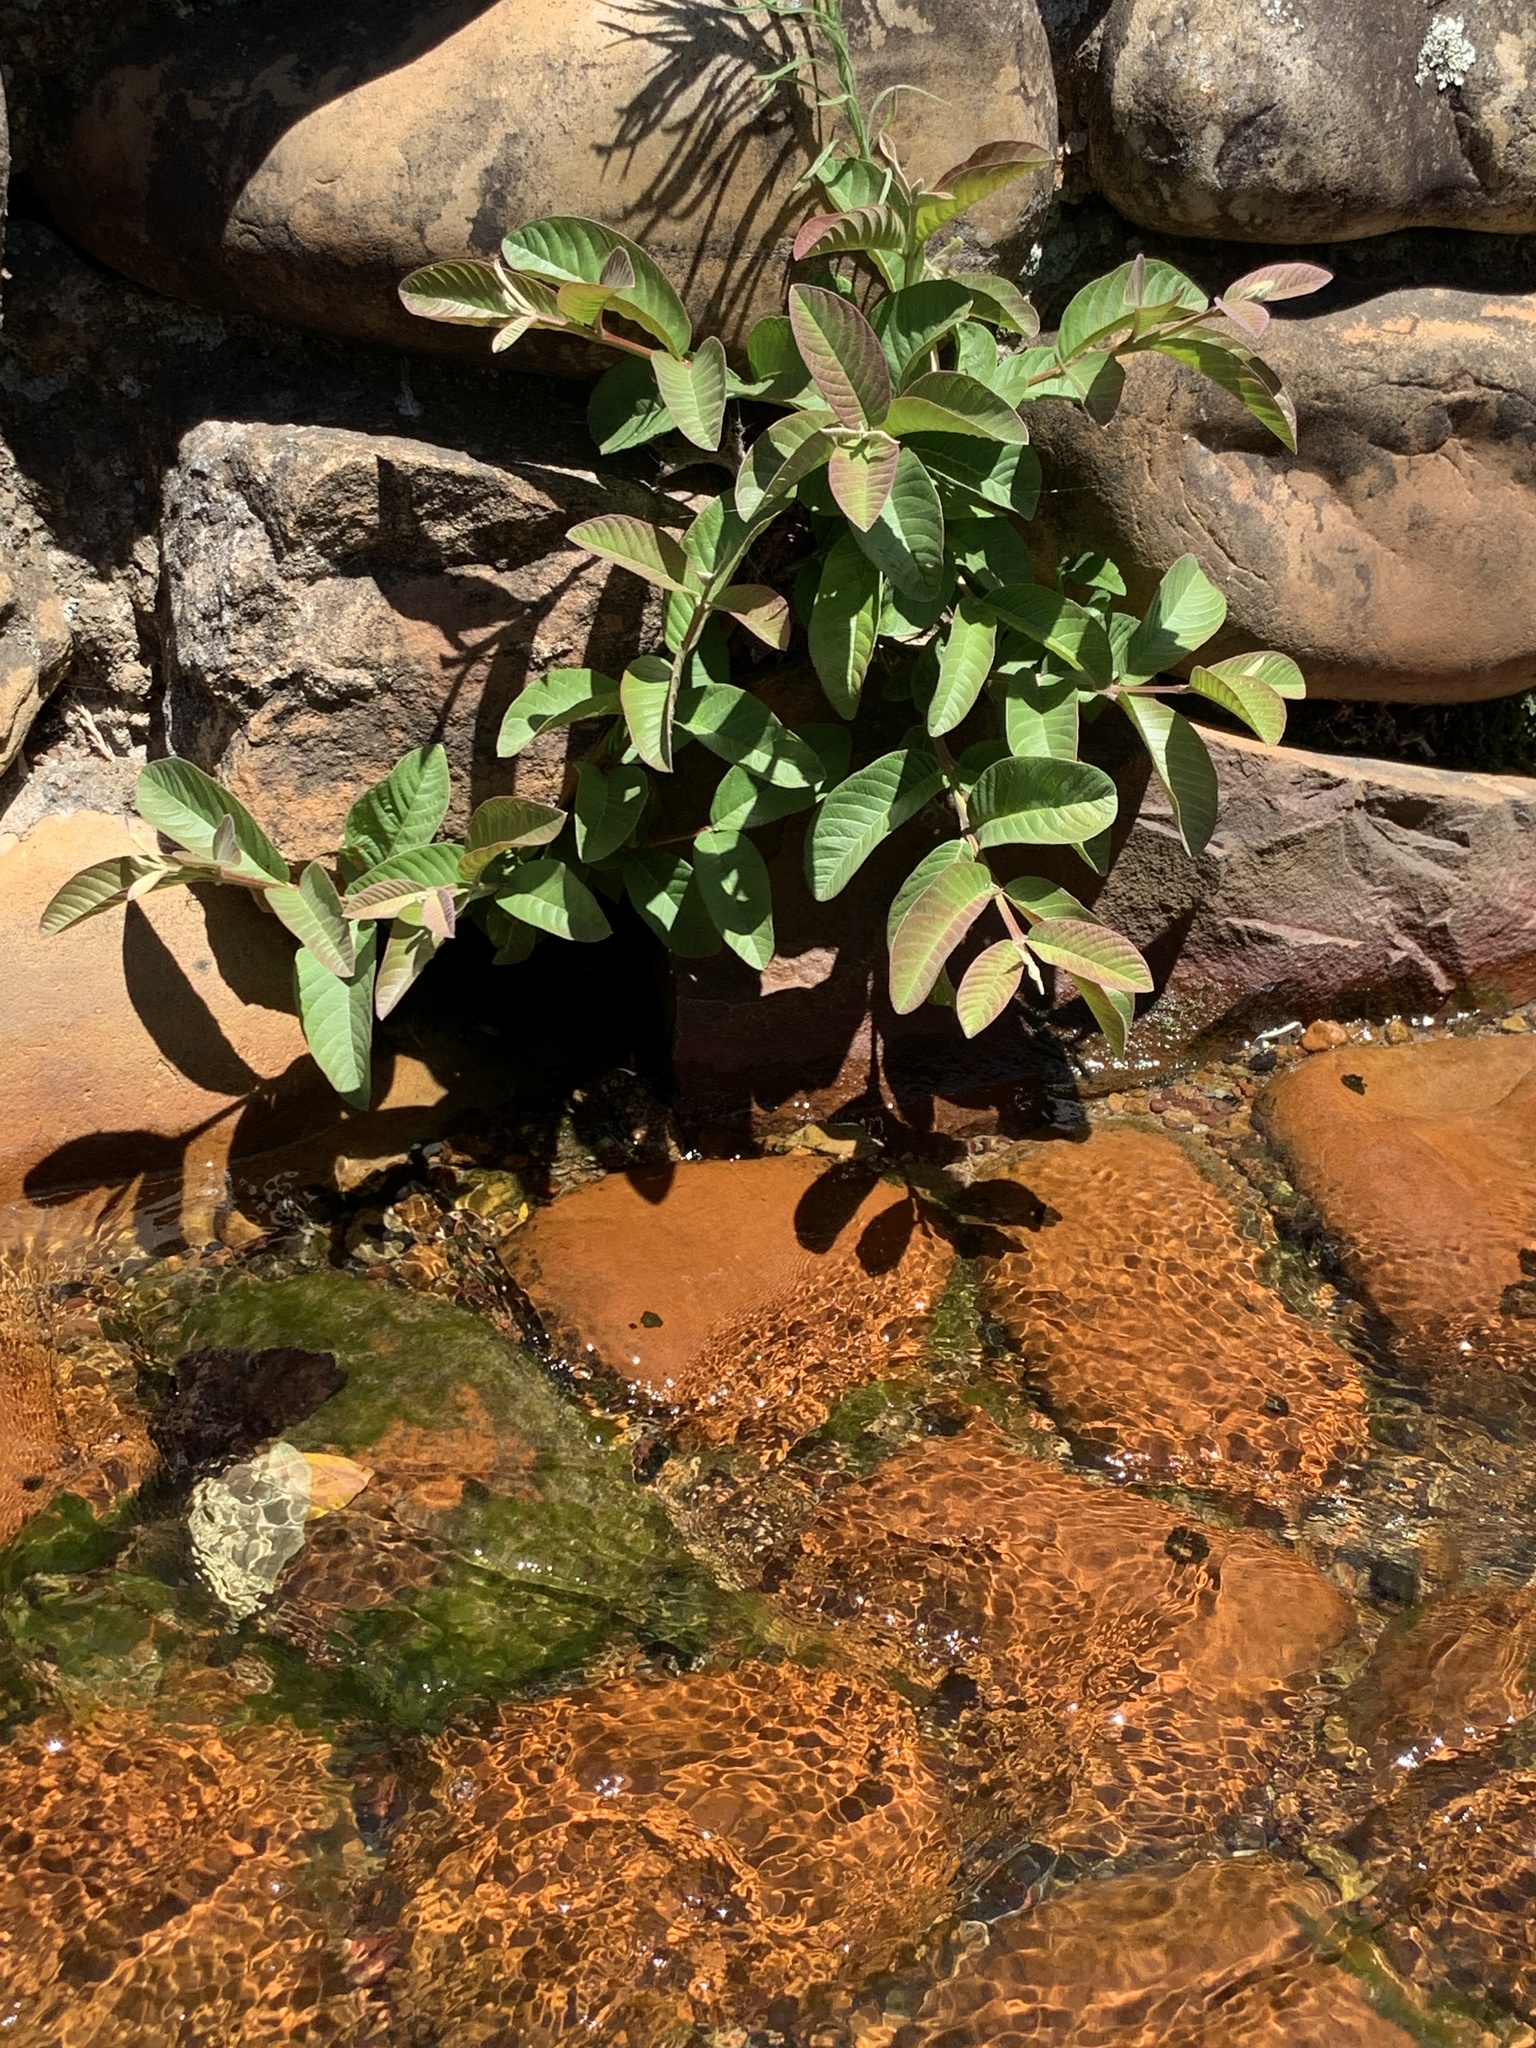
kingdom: Plantae
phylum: Tracheophyta
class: Magnoliopsida
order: Myrtales
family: Myrtaceae
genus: Psidium
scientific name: Psidium guajava
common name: Guava
